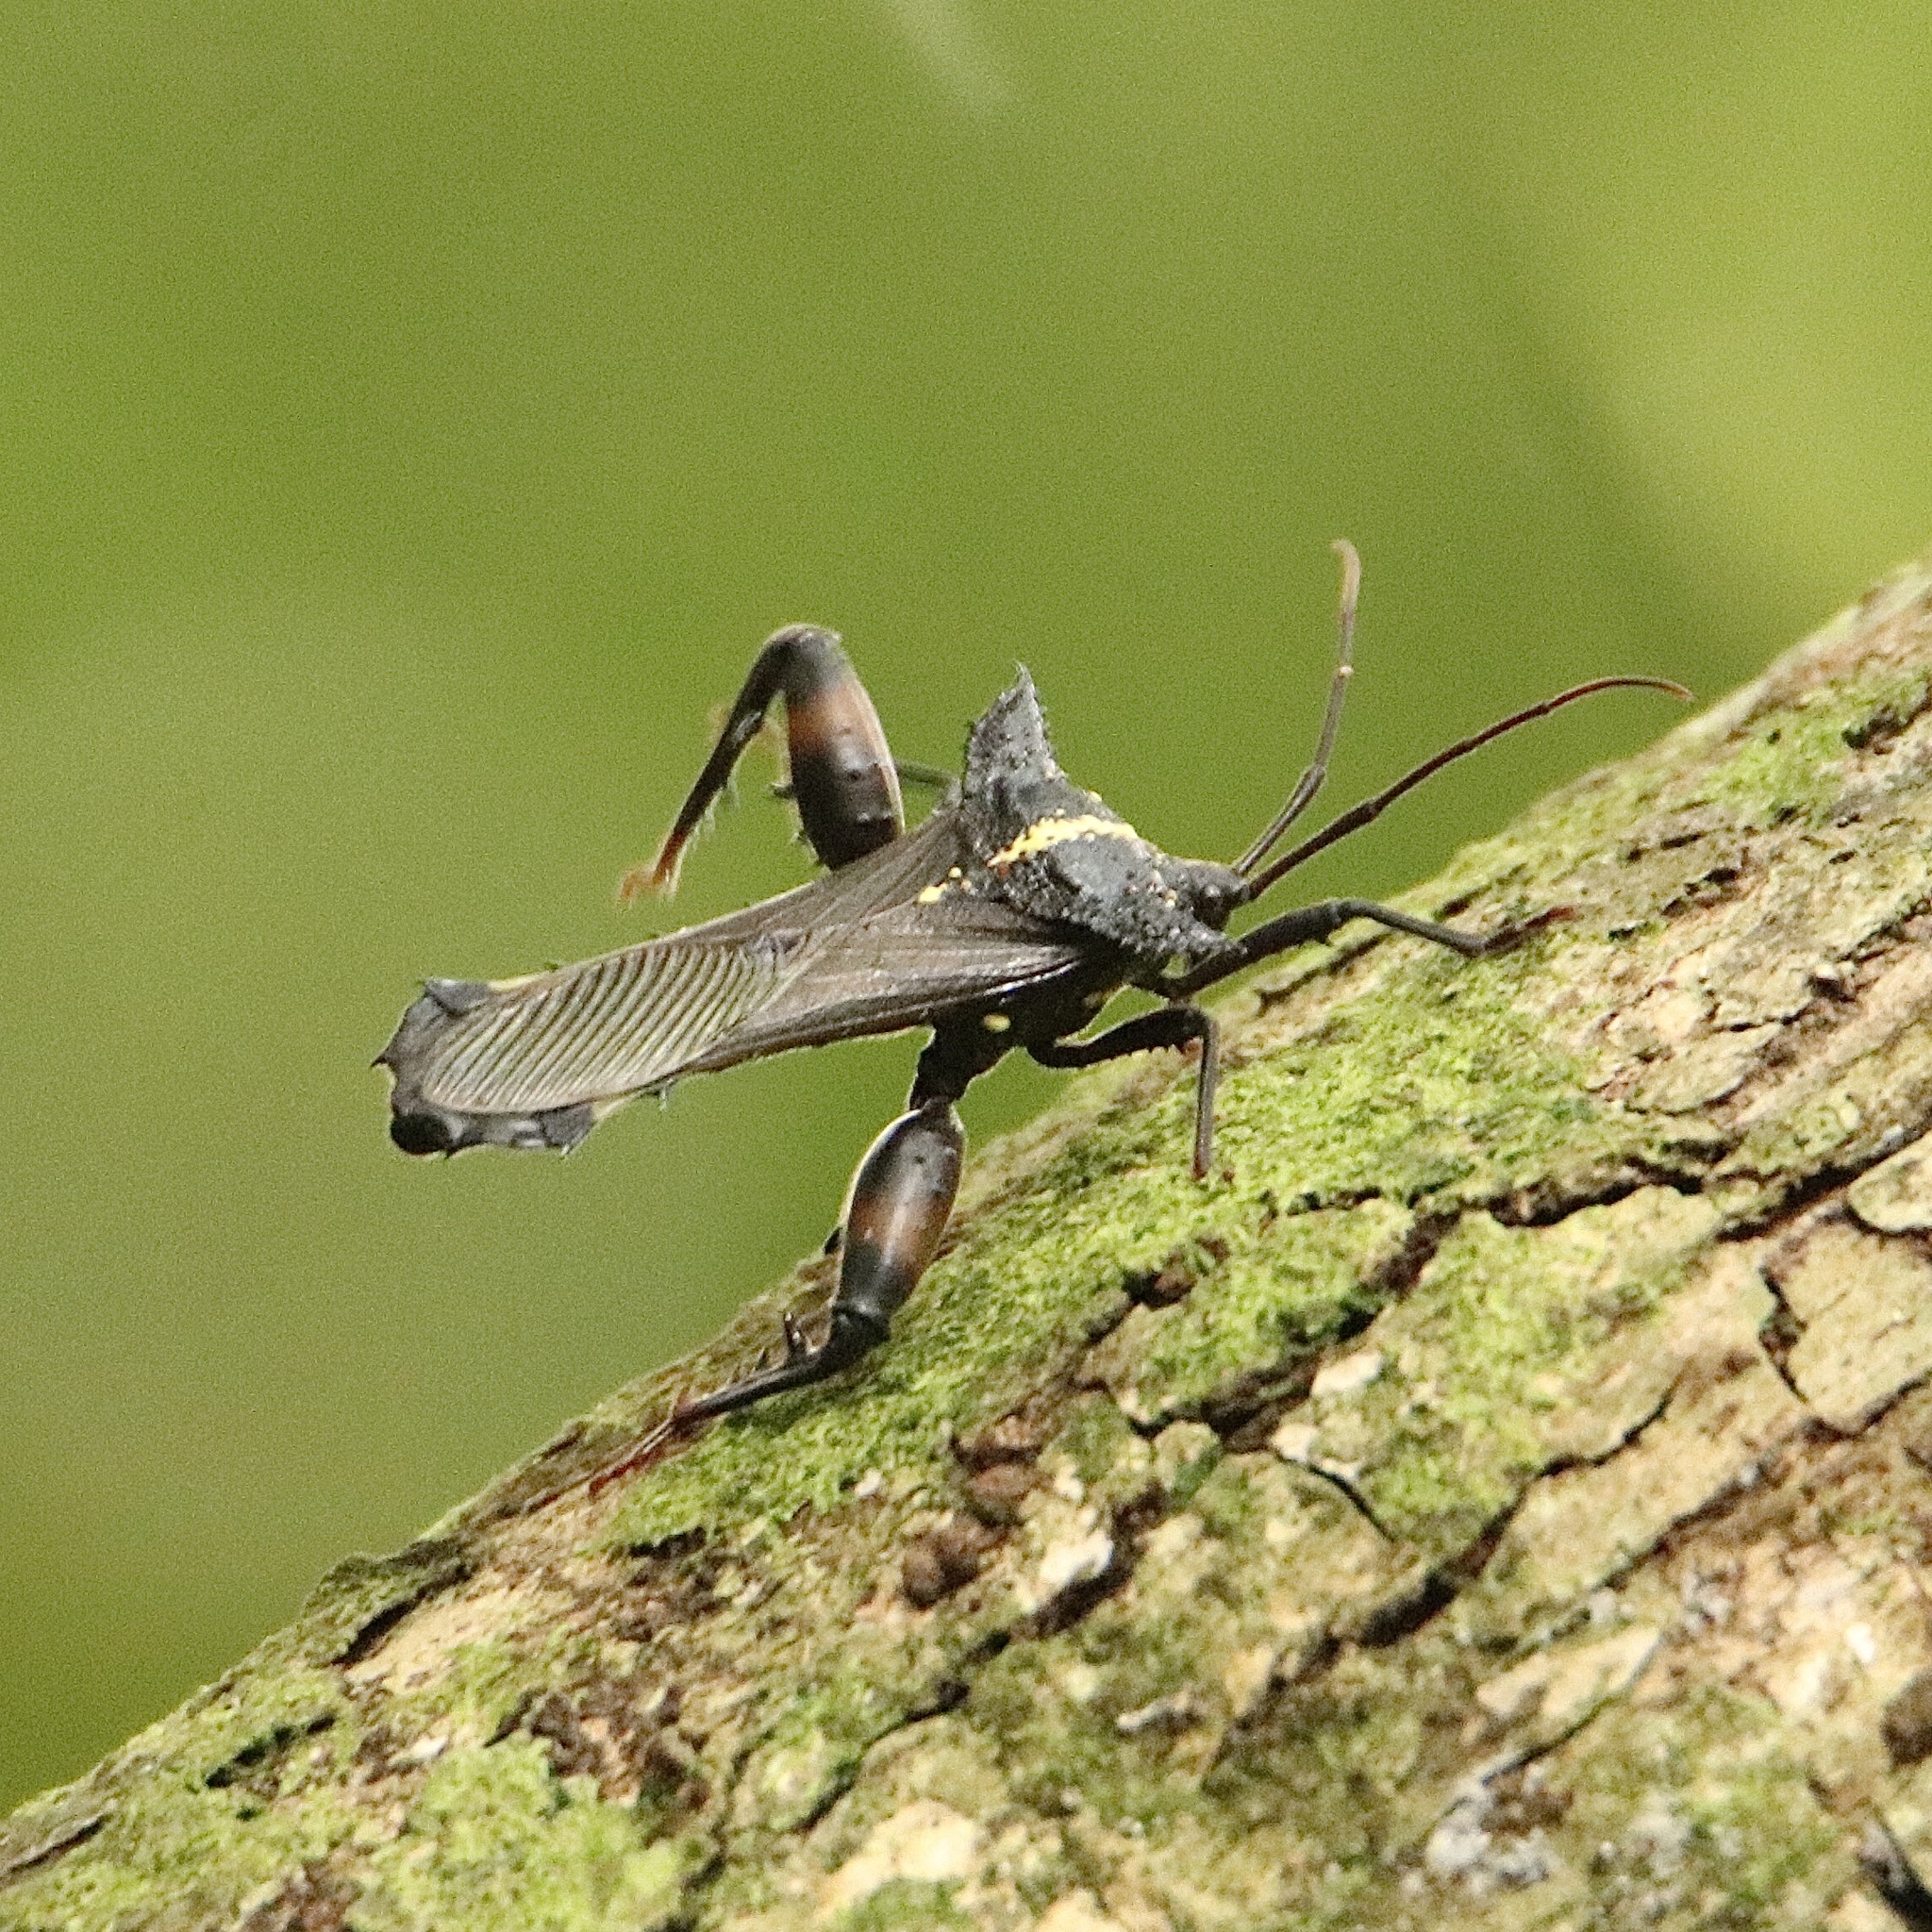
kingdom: Animalia
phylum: Arthropoda
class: Insecta
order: Hemiptera
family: Coreidae
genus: Acocopus
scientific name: Acocopus verrucifer
